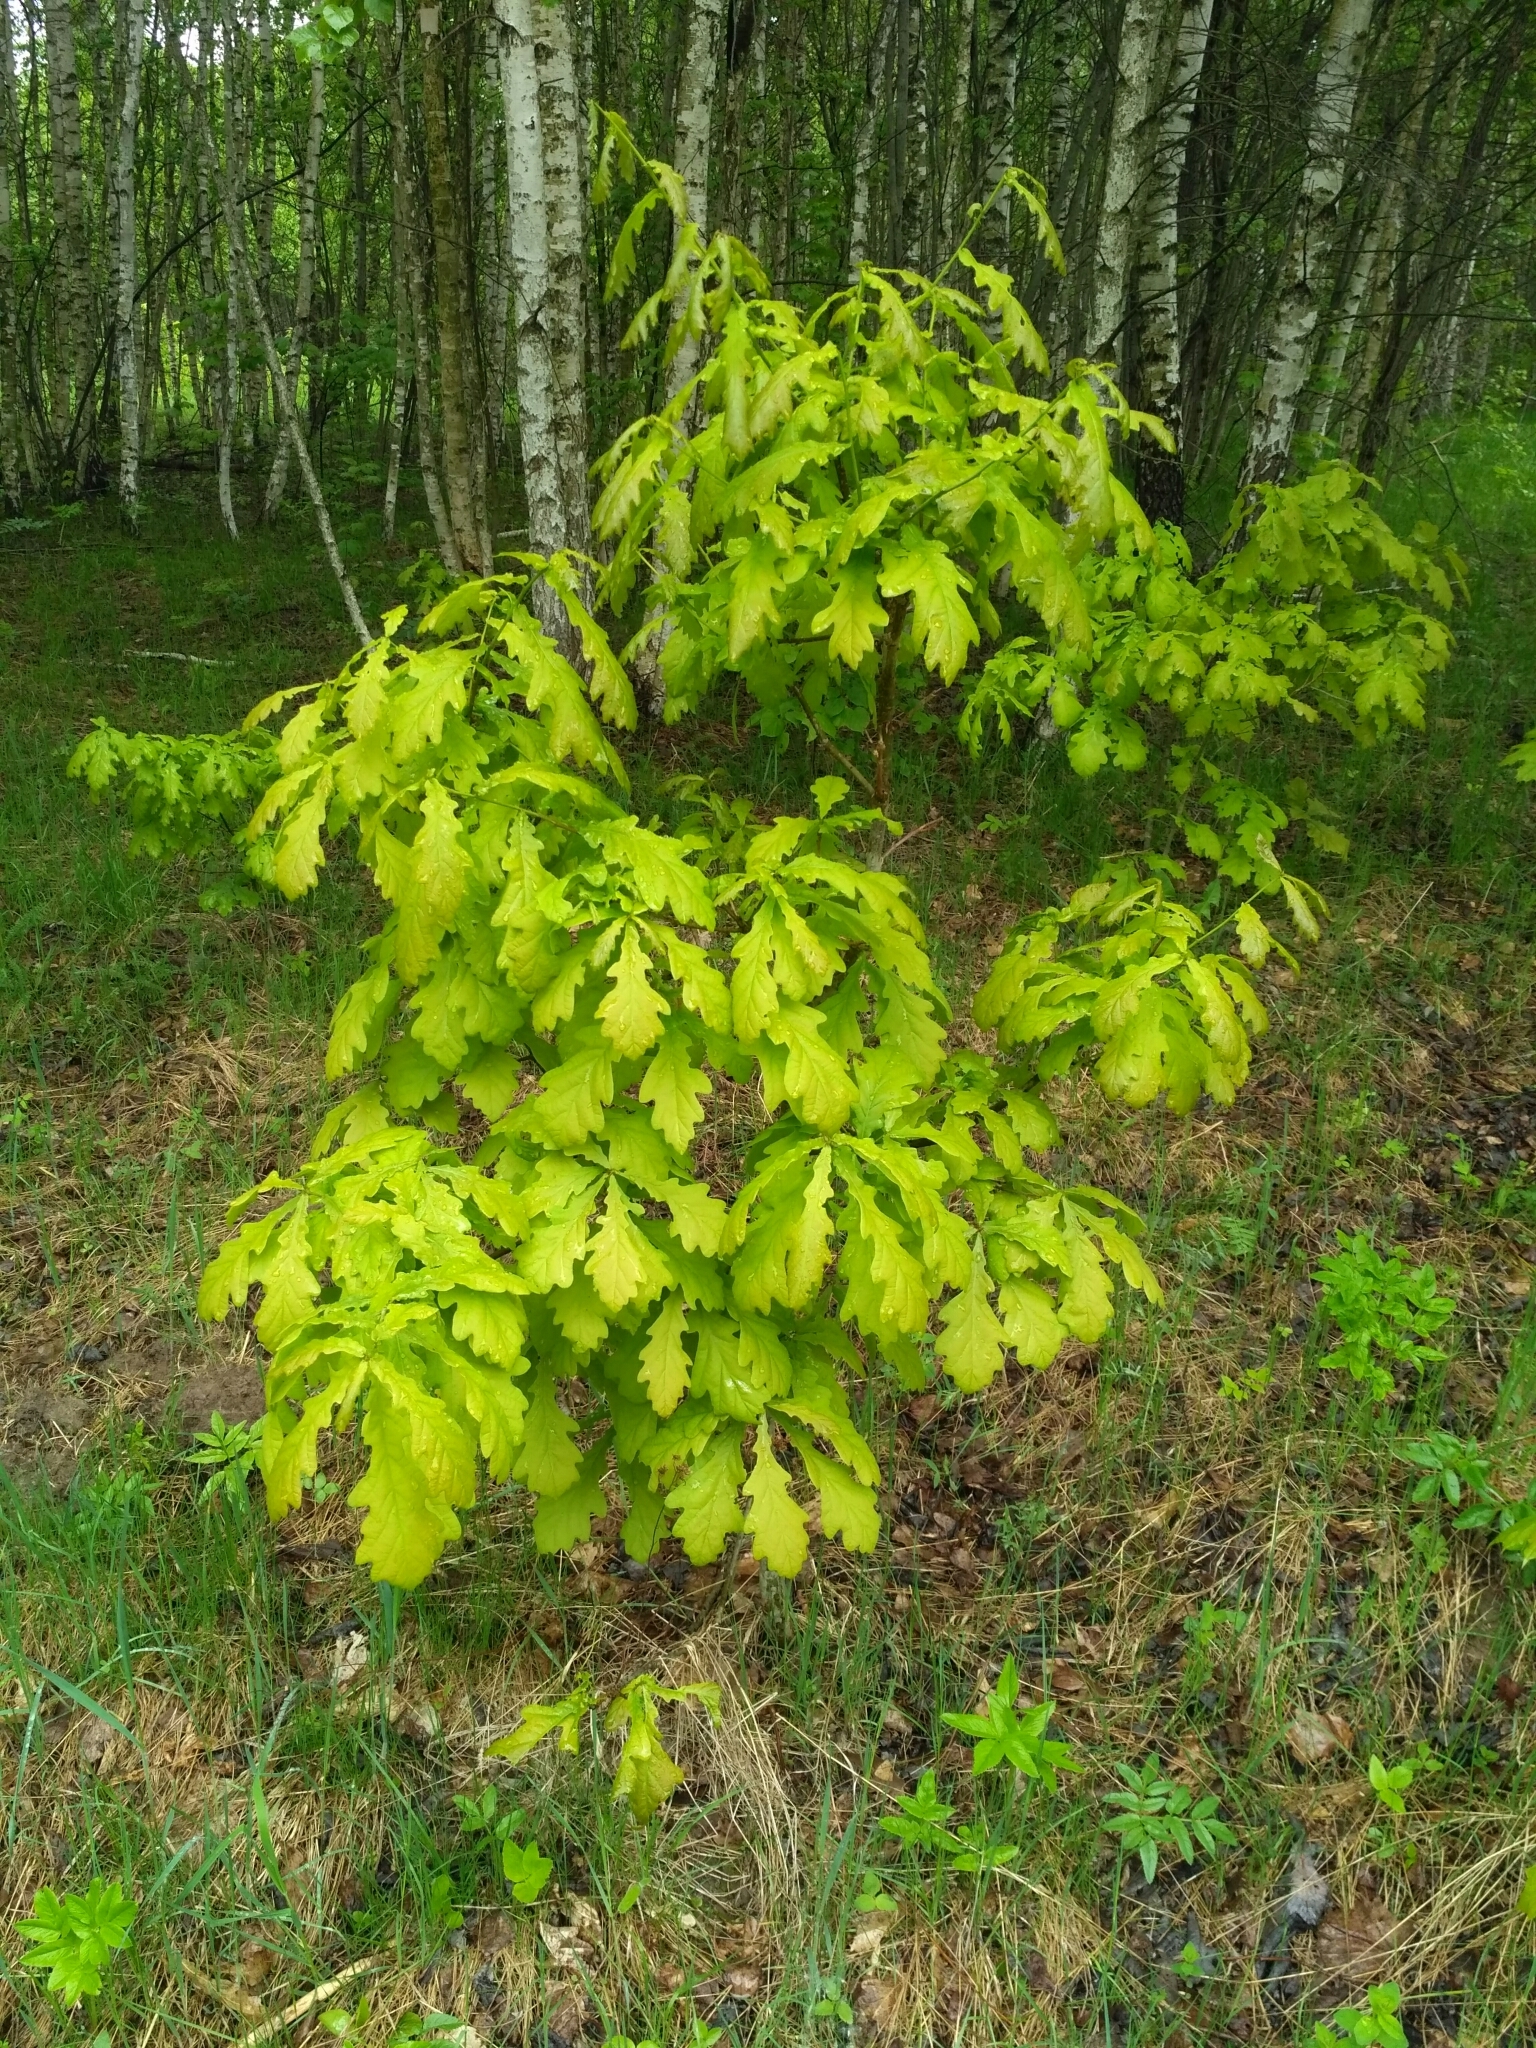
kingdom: Plantae
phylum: Tracheophyta
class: Magnoliopsida
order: Fagales
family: Fagaceae
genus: Quercus
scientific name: Quercus robur
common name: Pedunculate oak
